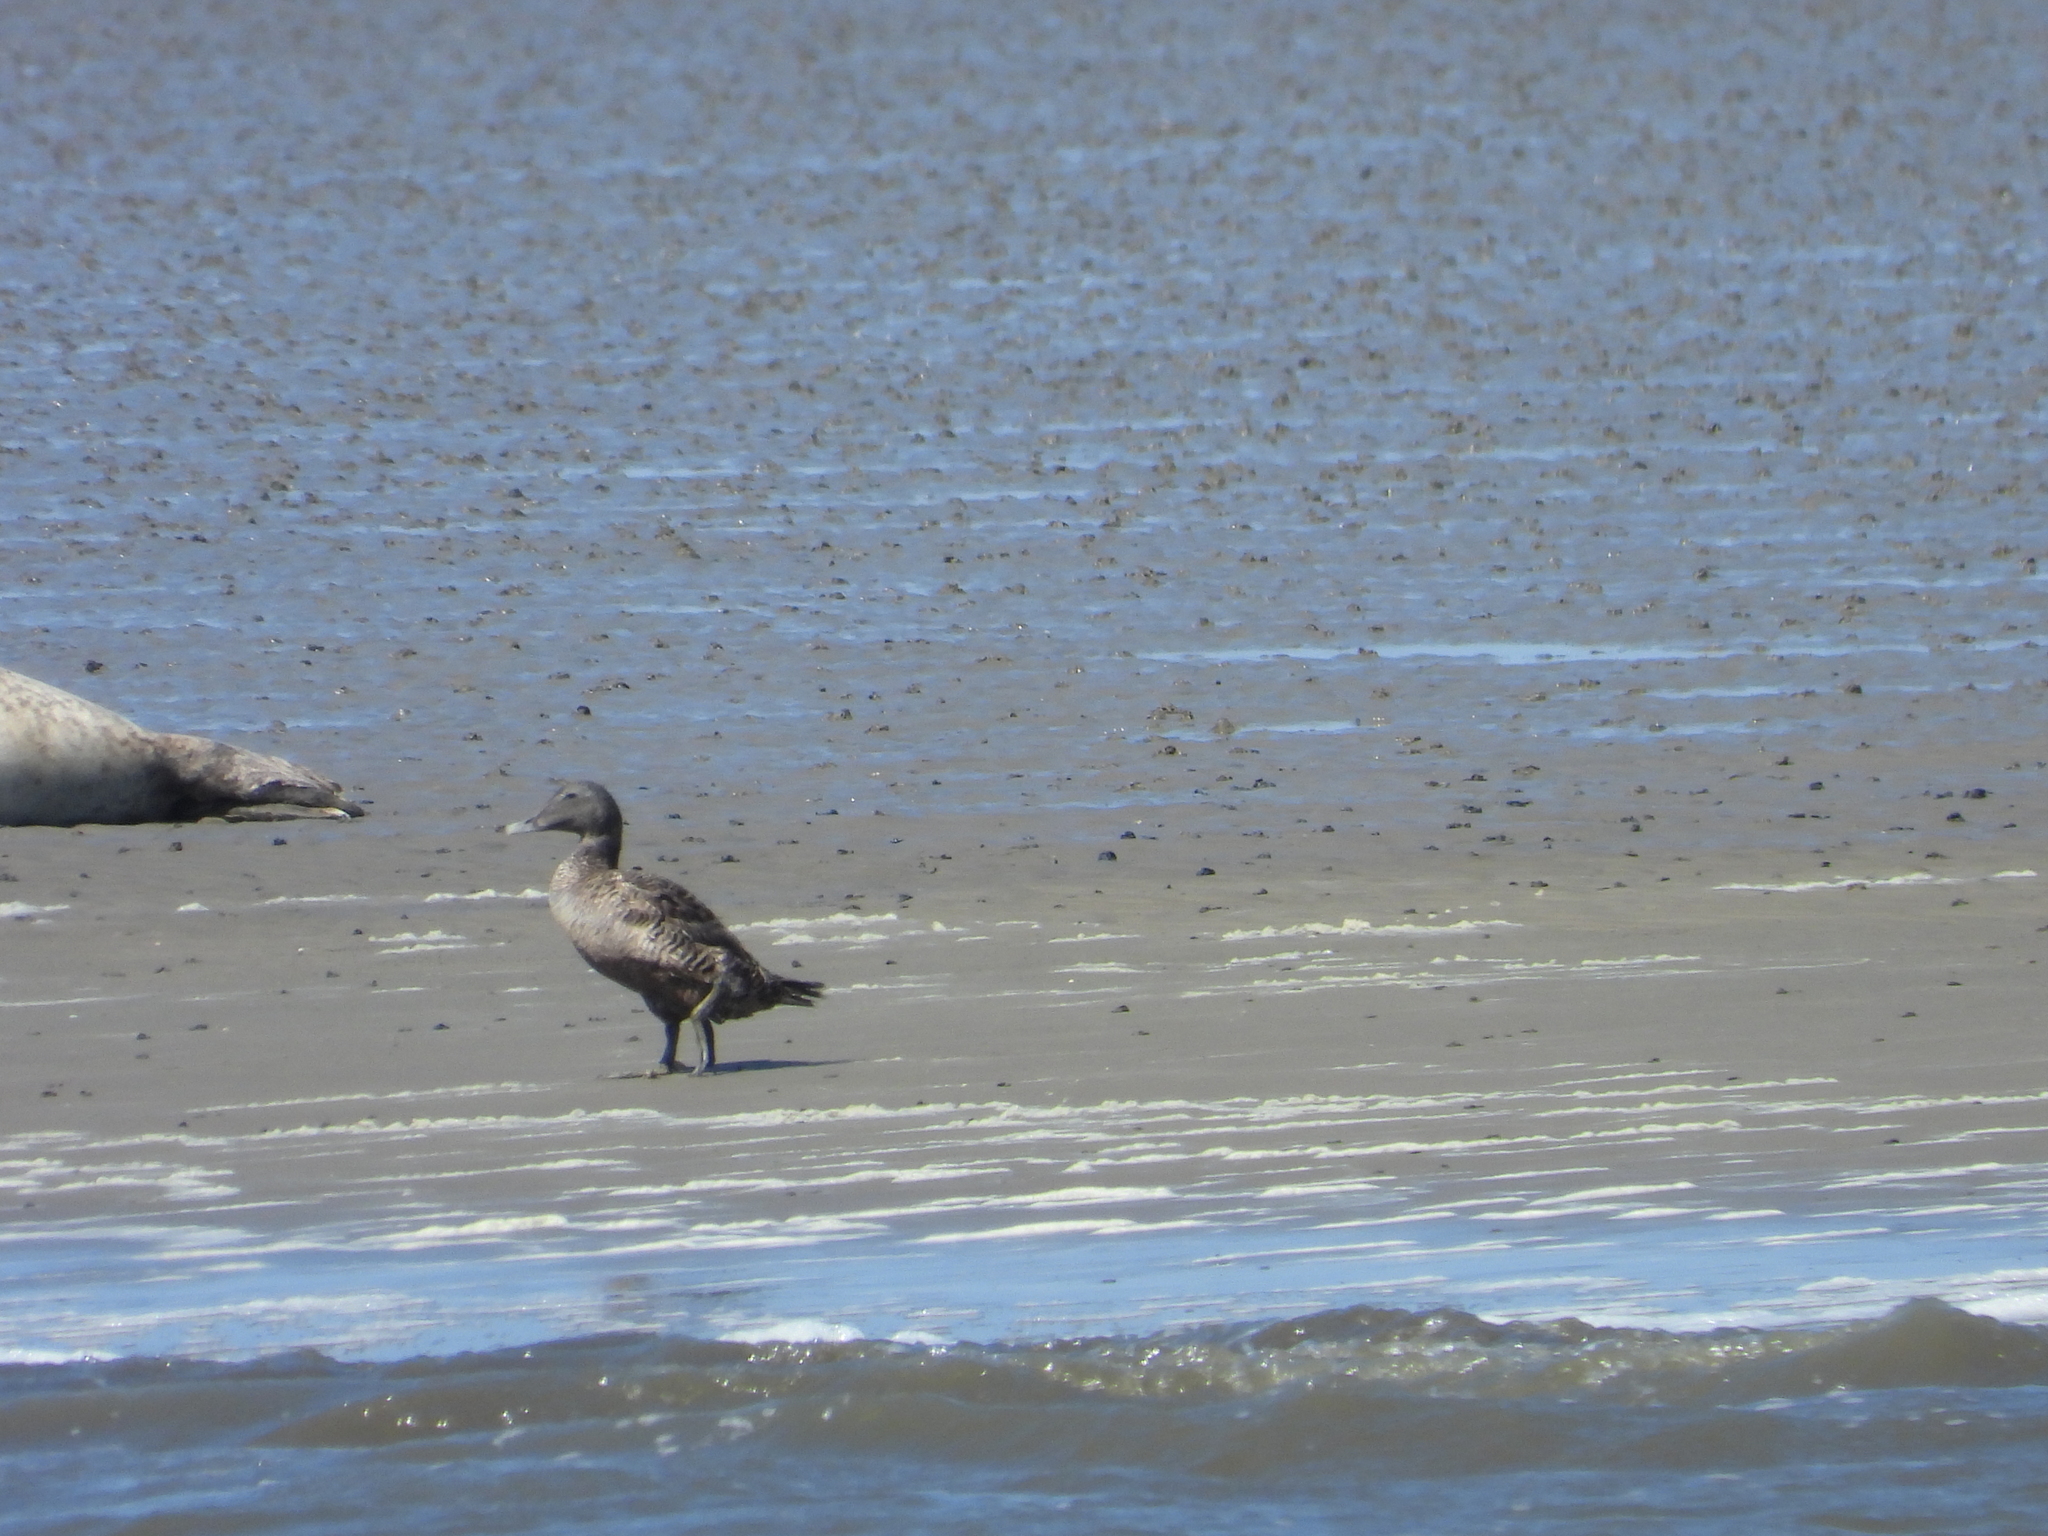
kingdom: Animalia
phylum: Chordata
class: Aves
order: Anseriformes
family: Anatidae
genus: Somateria
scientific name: Somateria mollissima
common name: Common eider
